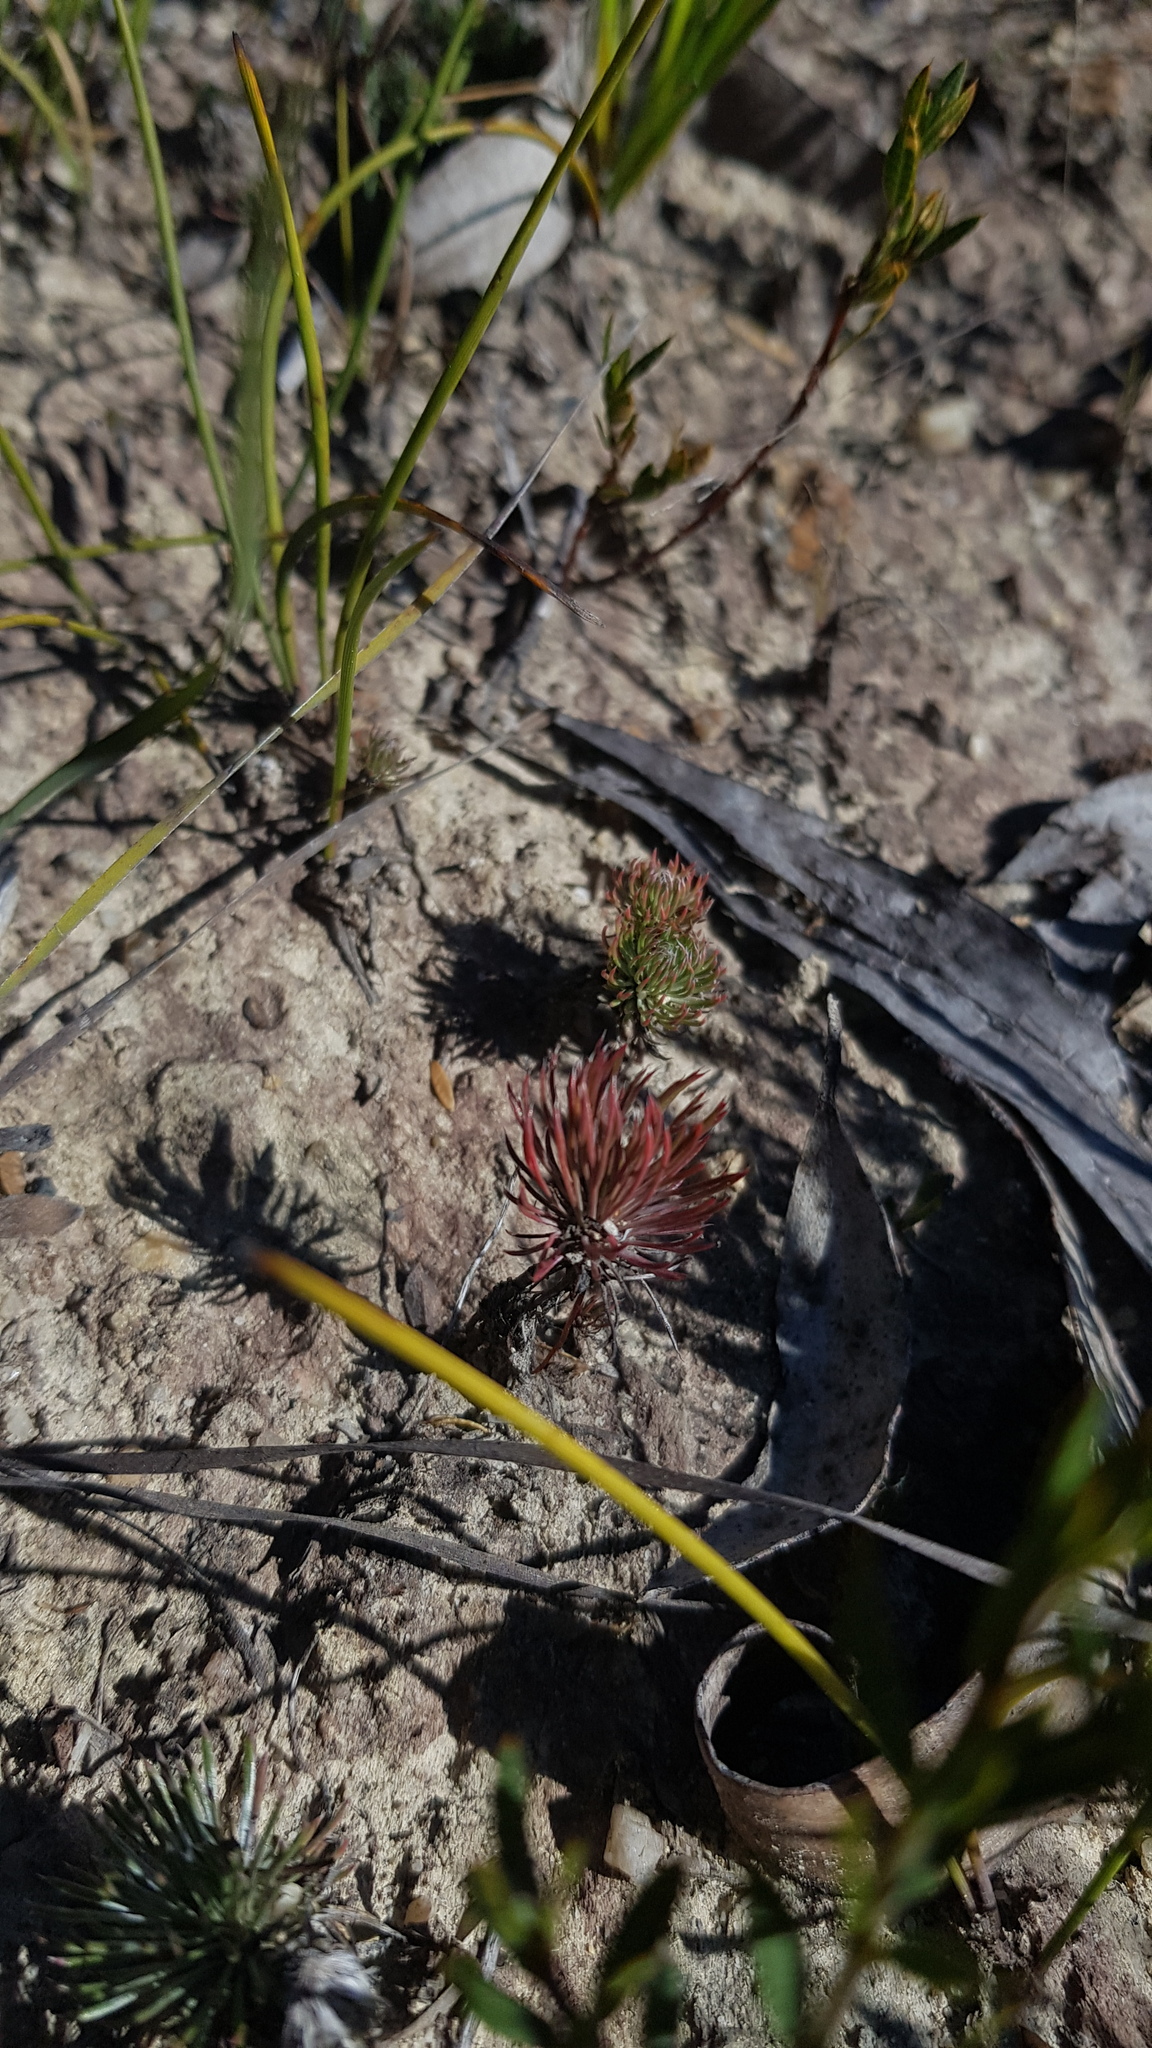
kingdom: Plantae
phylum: Tracheophyta
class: Magnoliopsida
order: Asterales
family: Stylidiaceae
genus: Stylidium
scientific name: Stylidium lineare
